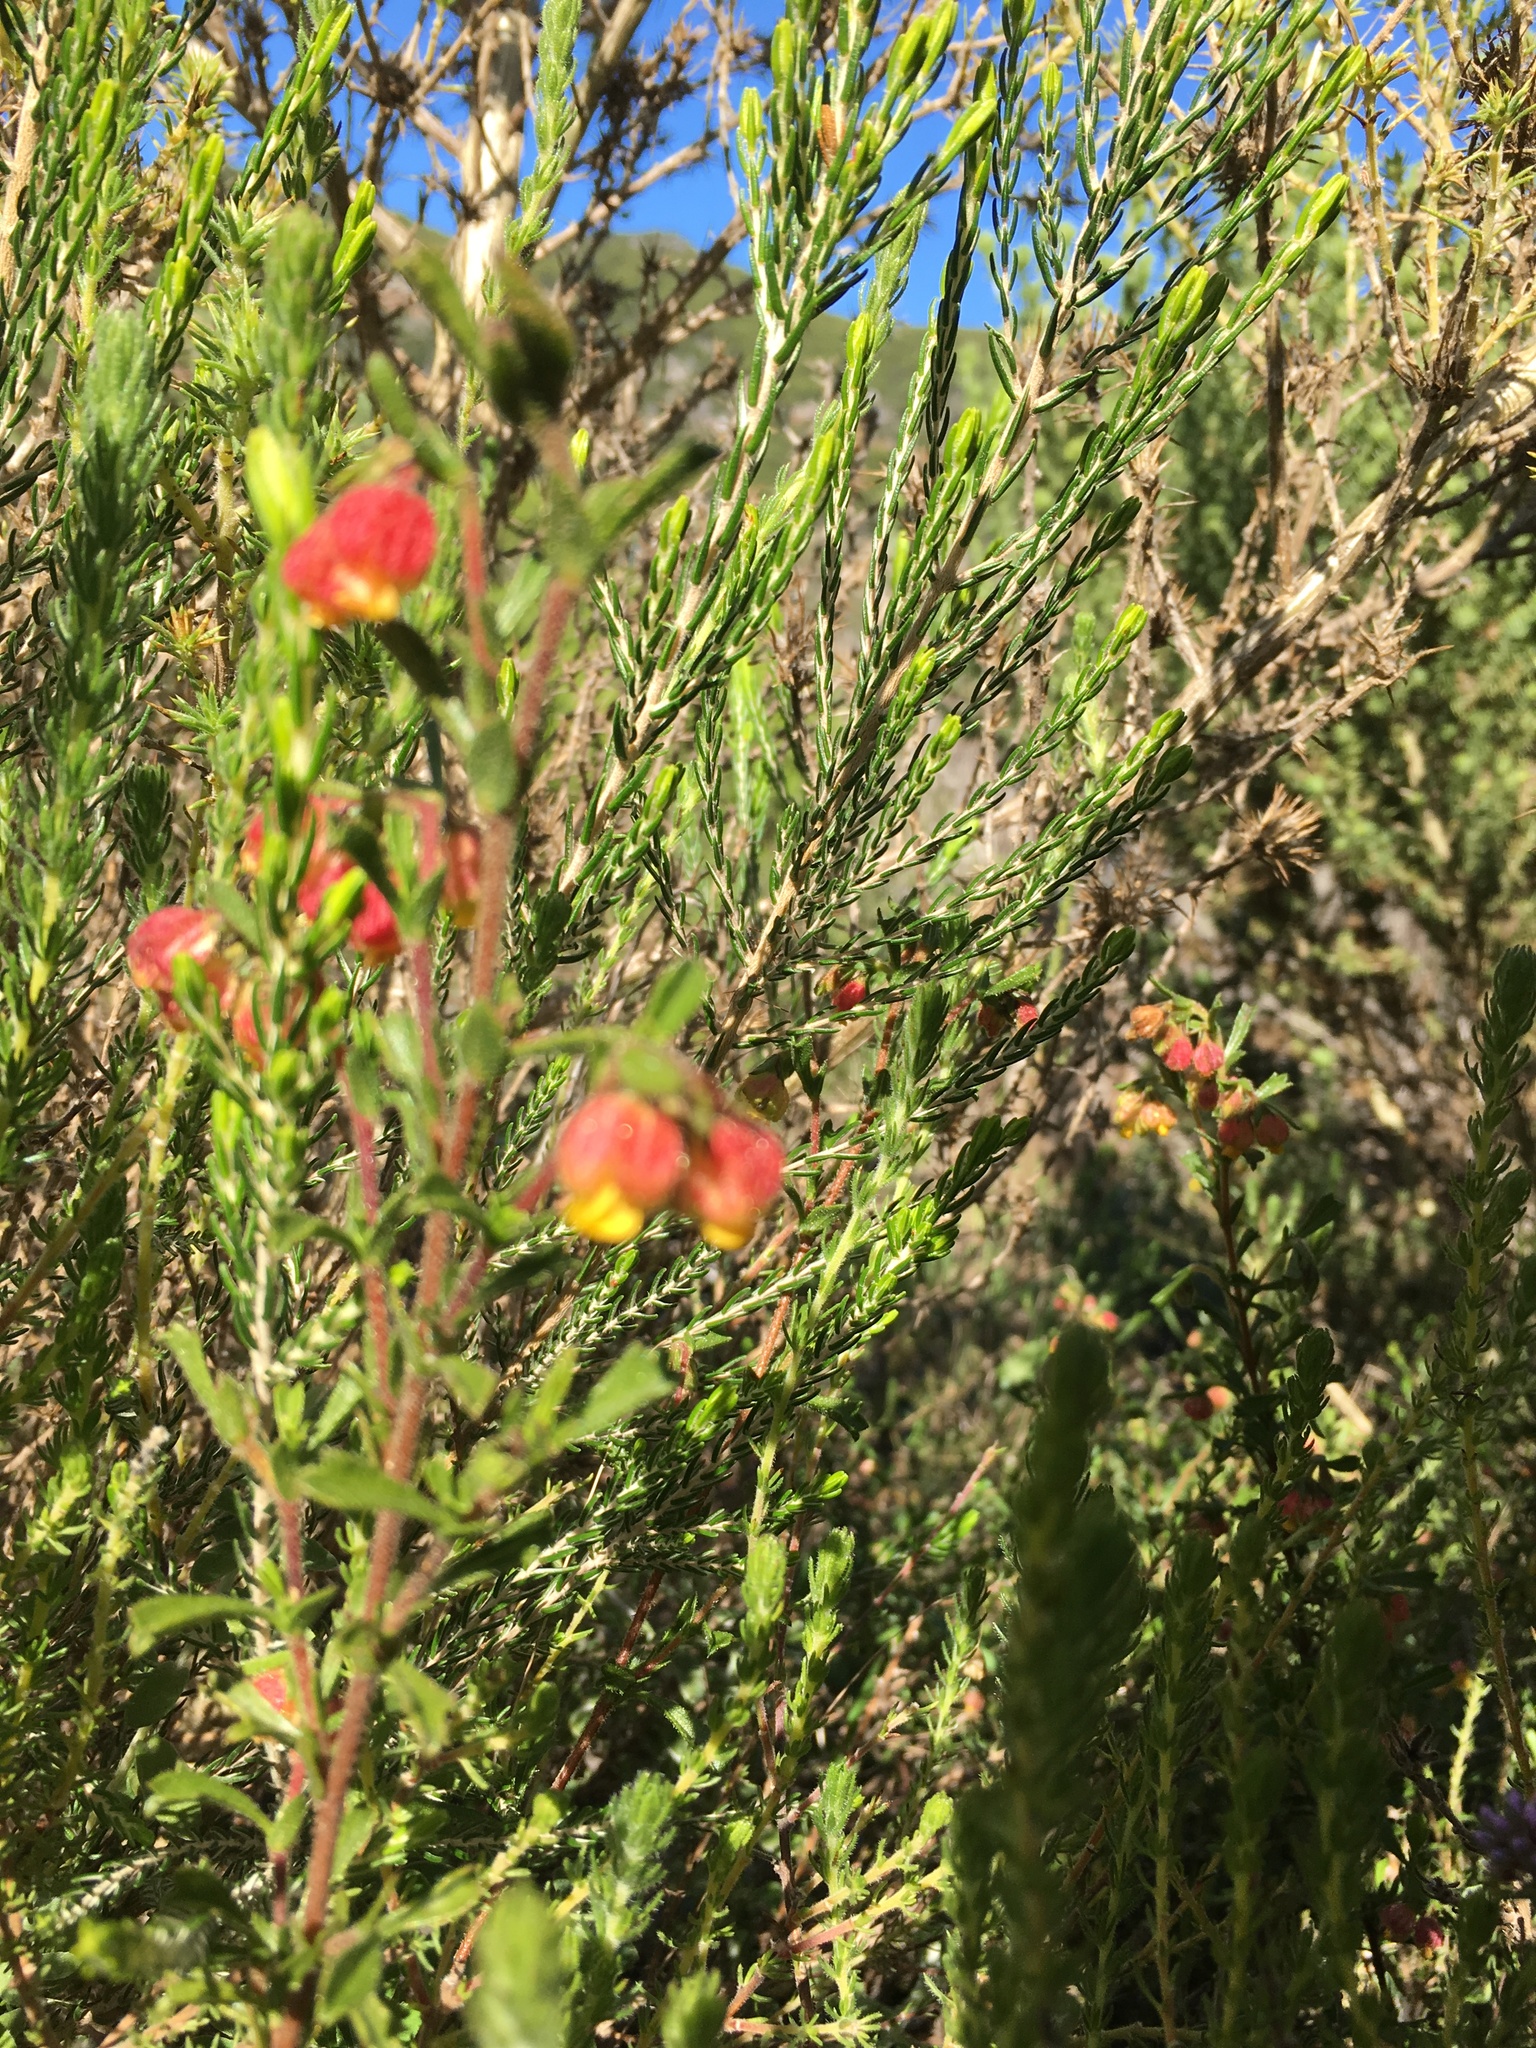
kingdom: Plantae
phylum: Tracheophyta
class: Magnoliopsida
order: Malvales
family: Malvaceae
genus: Hermannia
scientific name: Hermannia rudis
